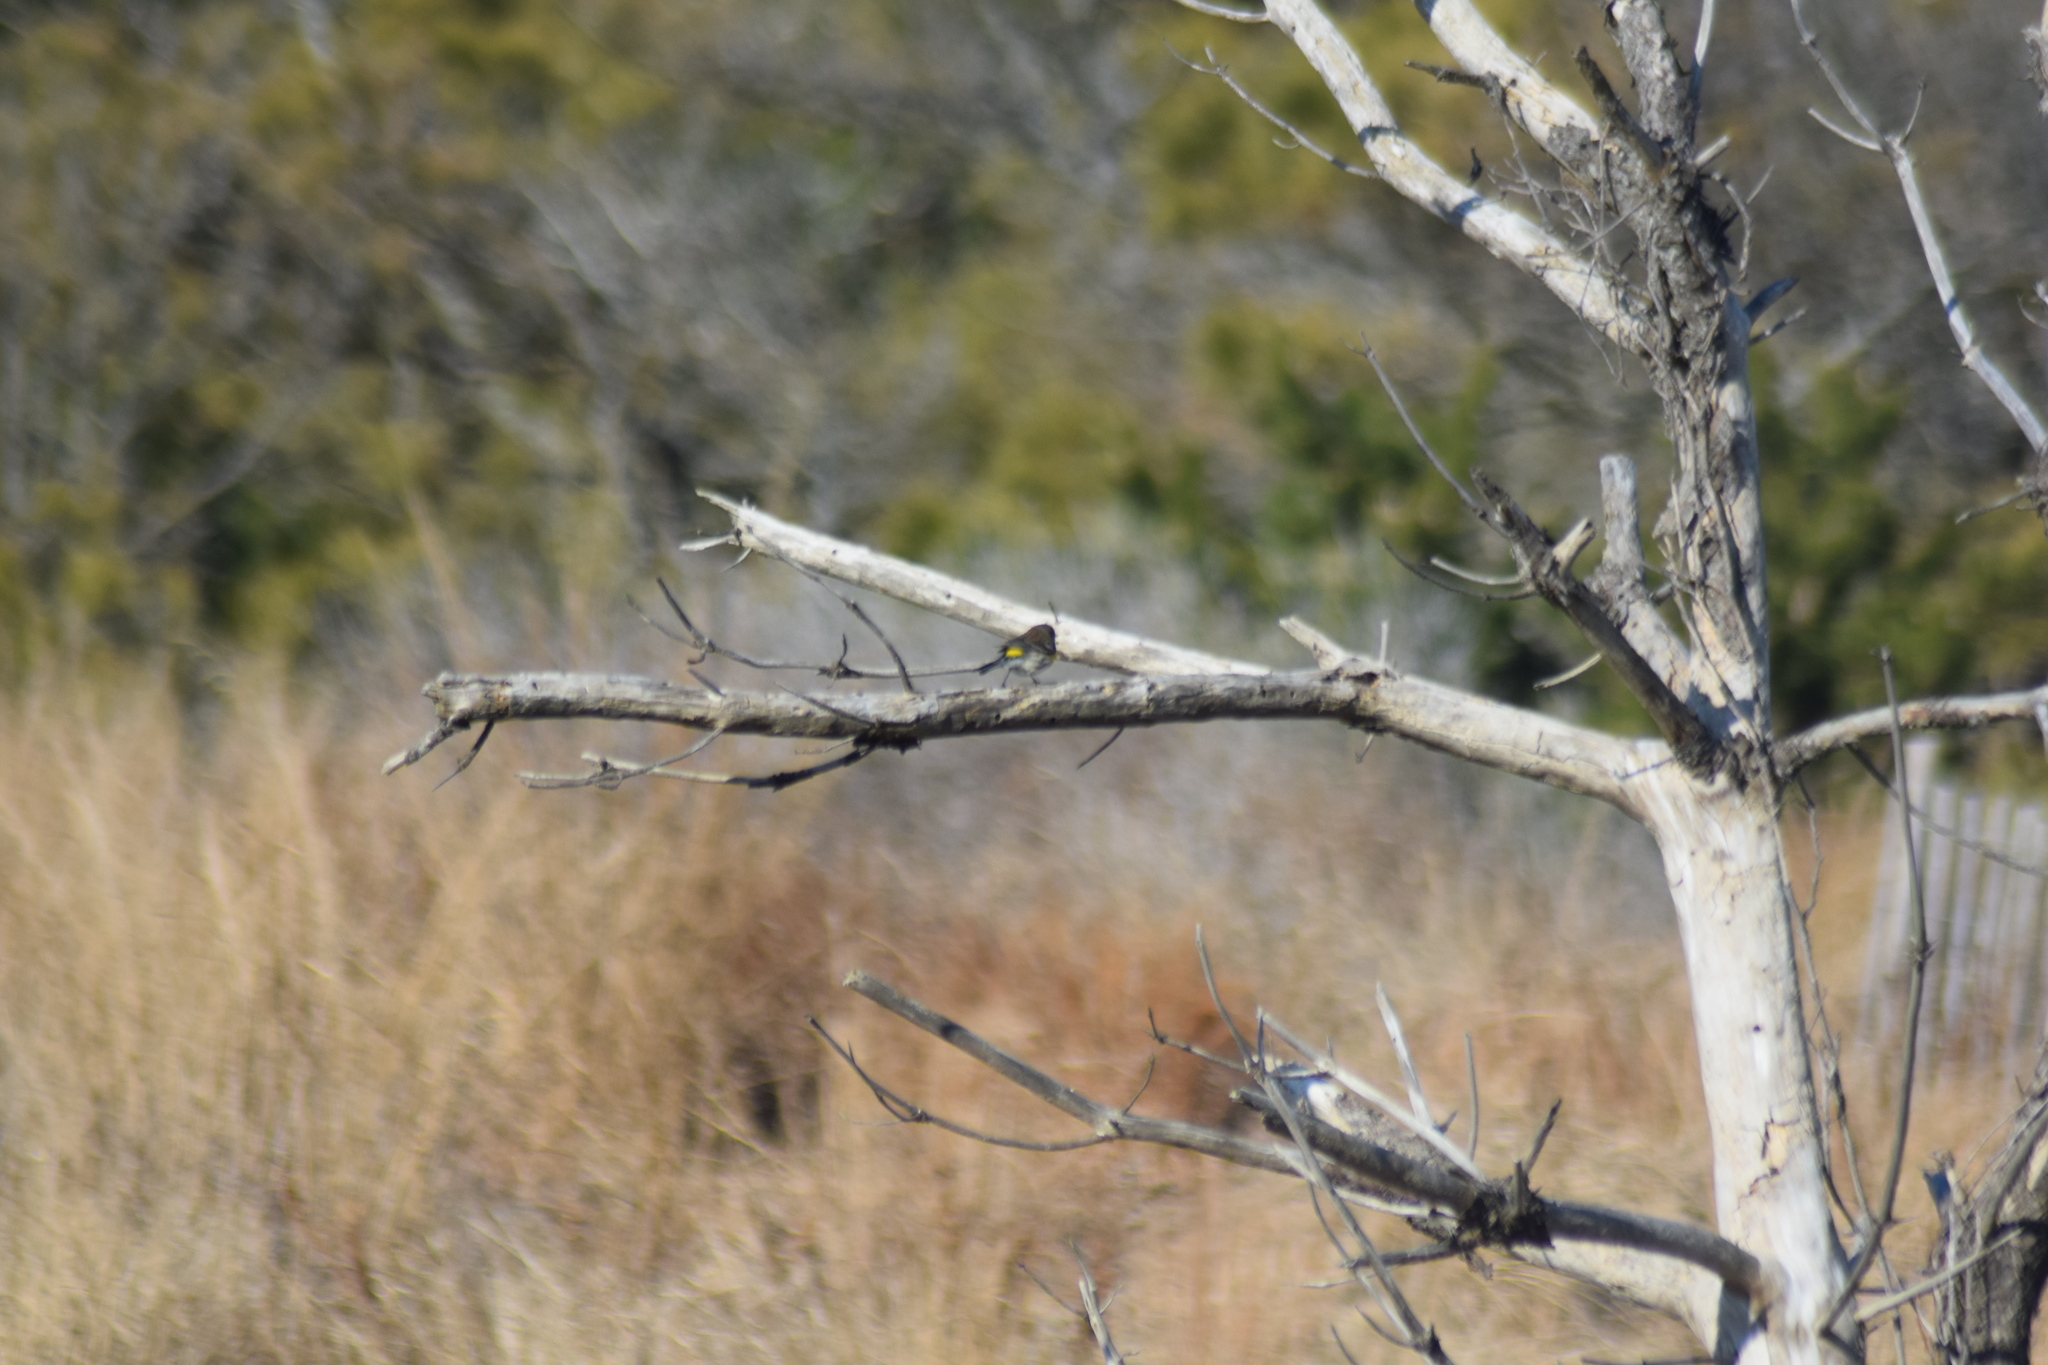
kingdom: Animalia
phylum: Chordata
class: Aves
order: Passeriformes
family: Parulidae
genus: Setophaga
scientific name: Setophaga coronata
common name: Myrtle warbler
